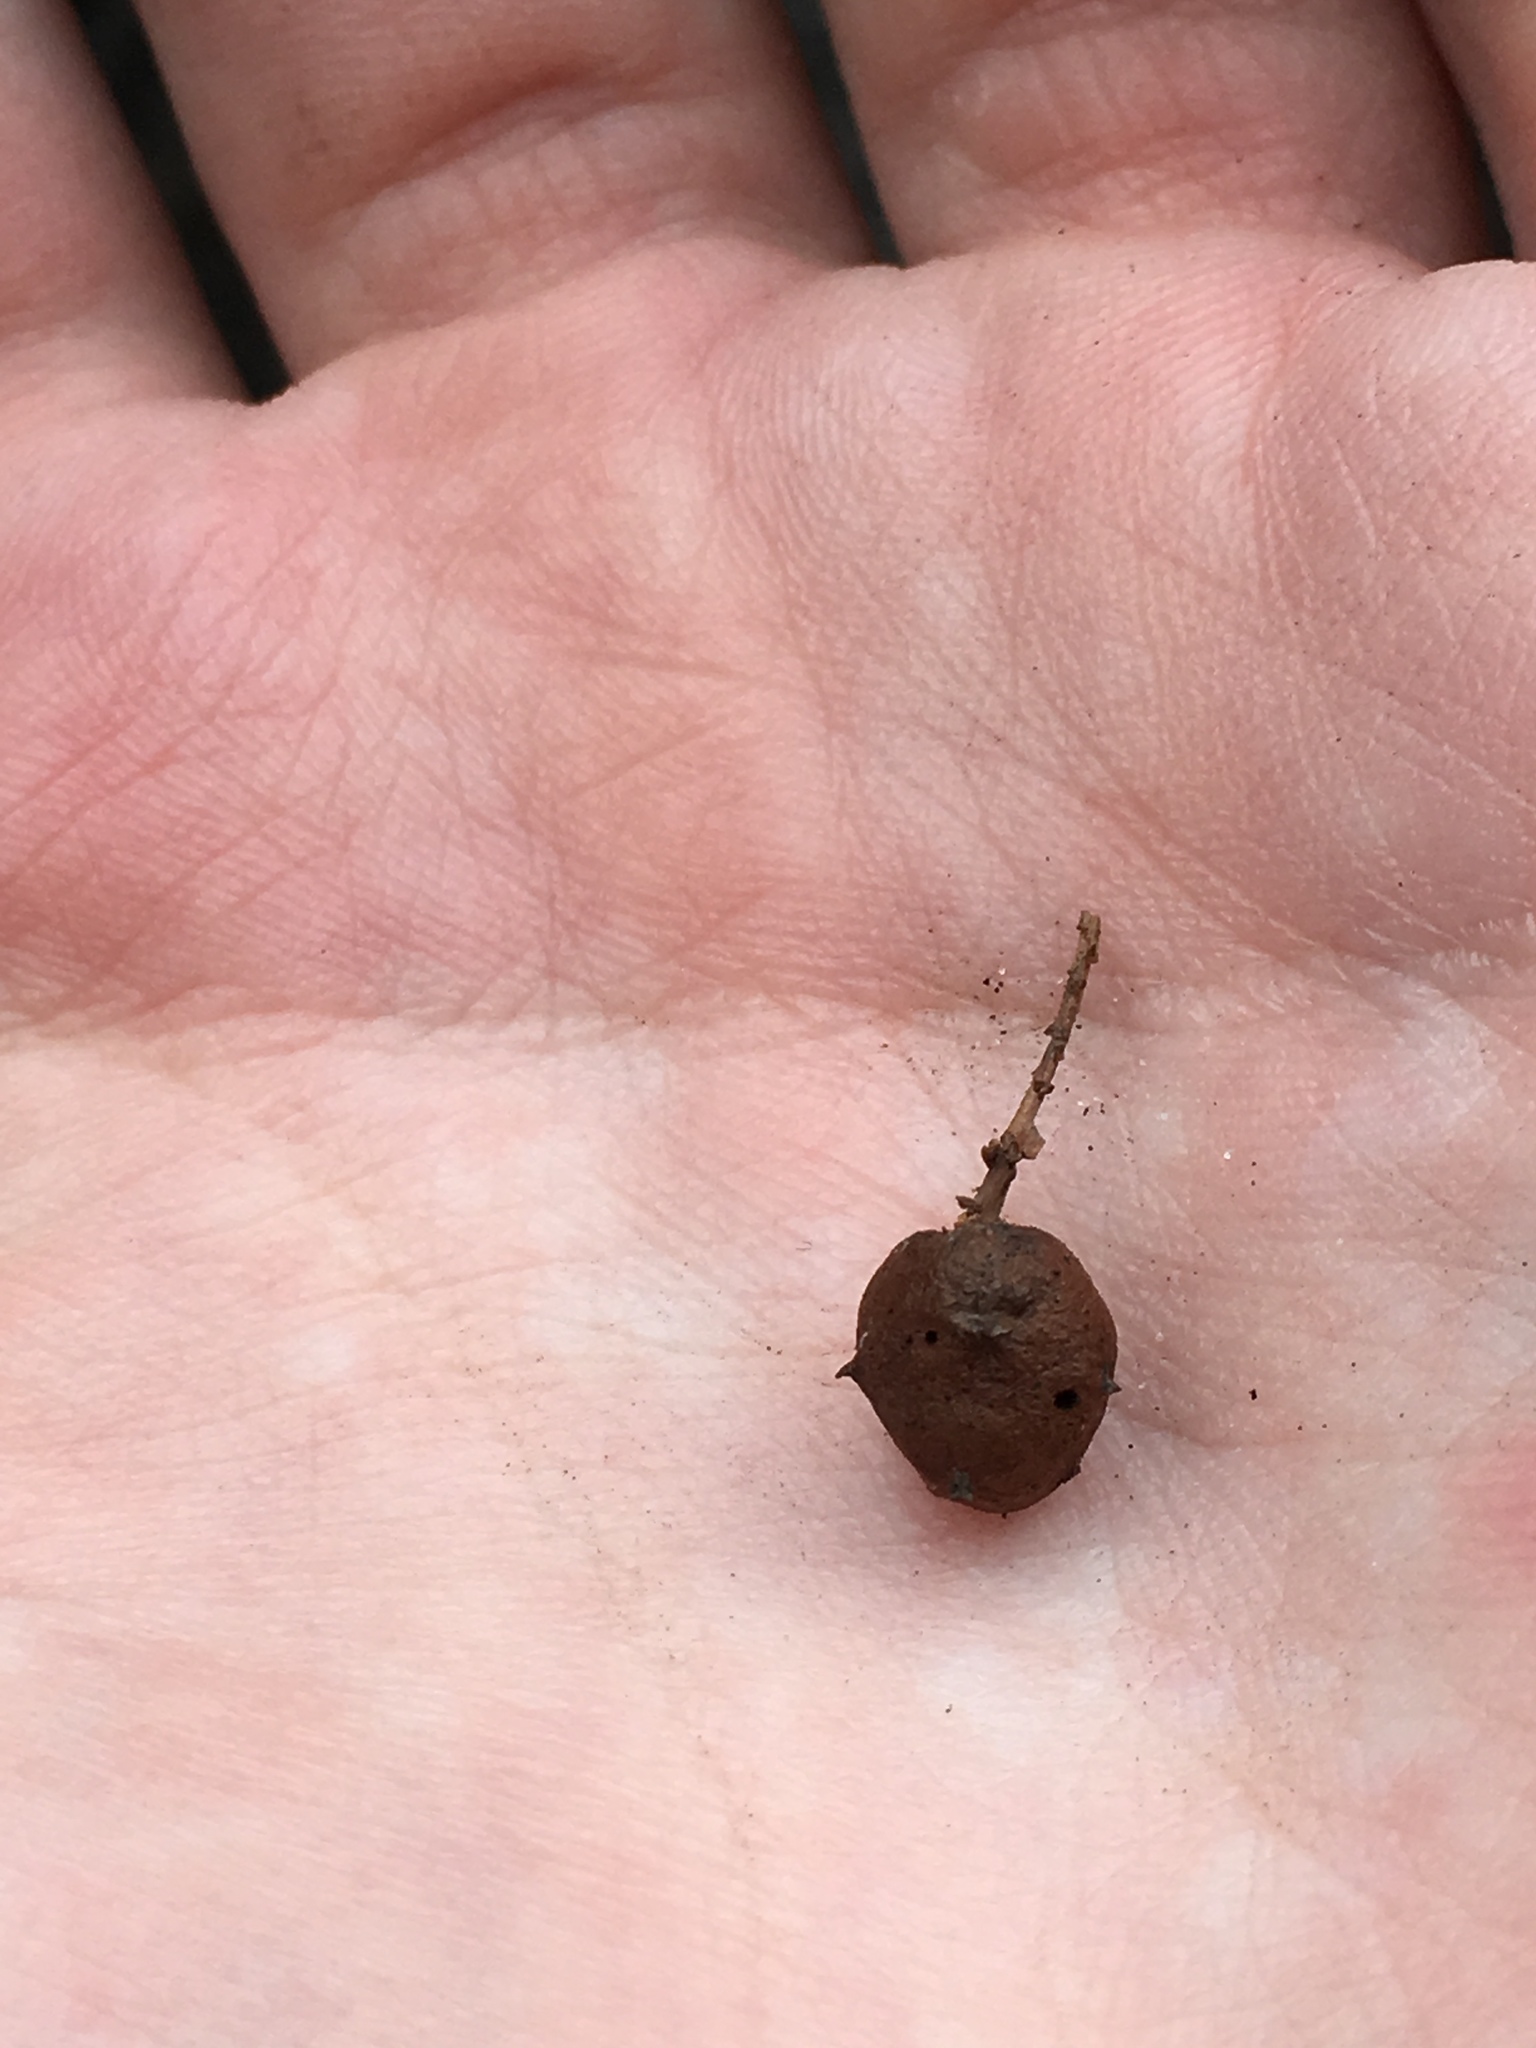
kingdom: Animalia
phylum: Arthropoda
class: Insecta
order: Diptera
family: Cecidomyiidae
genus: Taxodiomyia
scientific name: Taxodiomyia cupressiananassa
